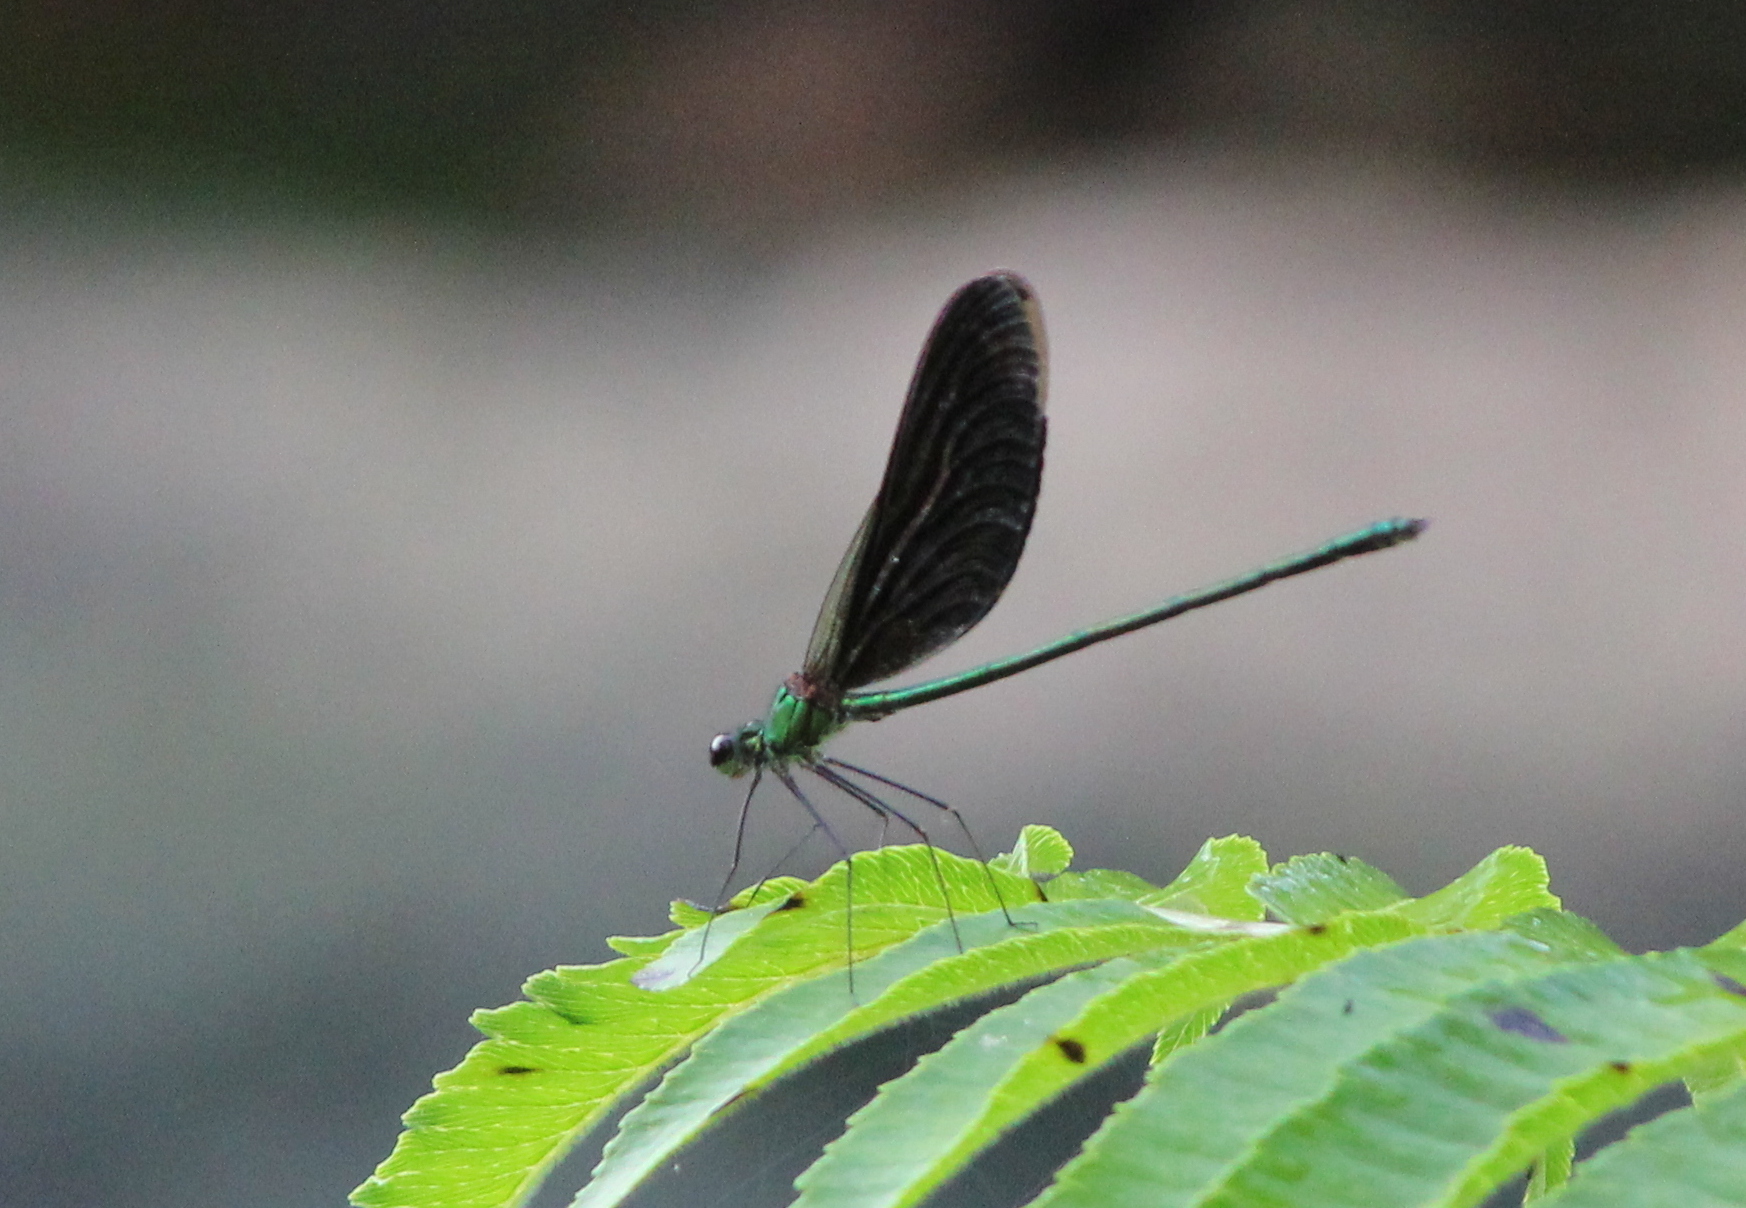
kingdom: Animalia
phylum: Arthropoda
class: Insecta
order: Odonata
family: Calopterygidae
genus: Neurobasis
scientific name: Neurobasis chinensis
